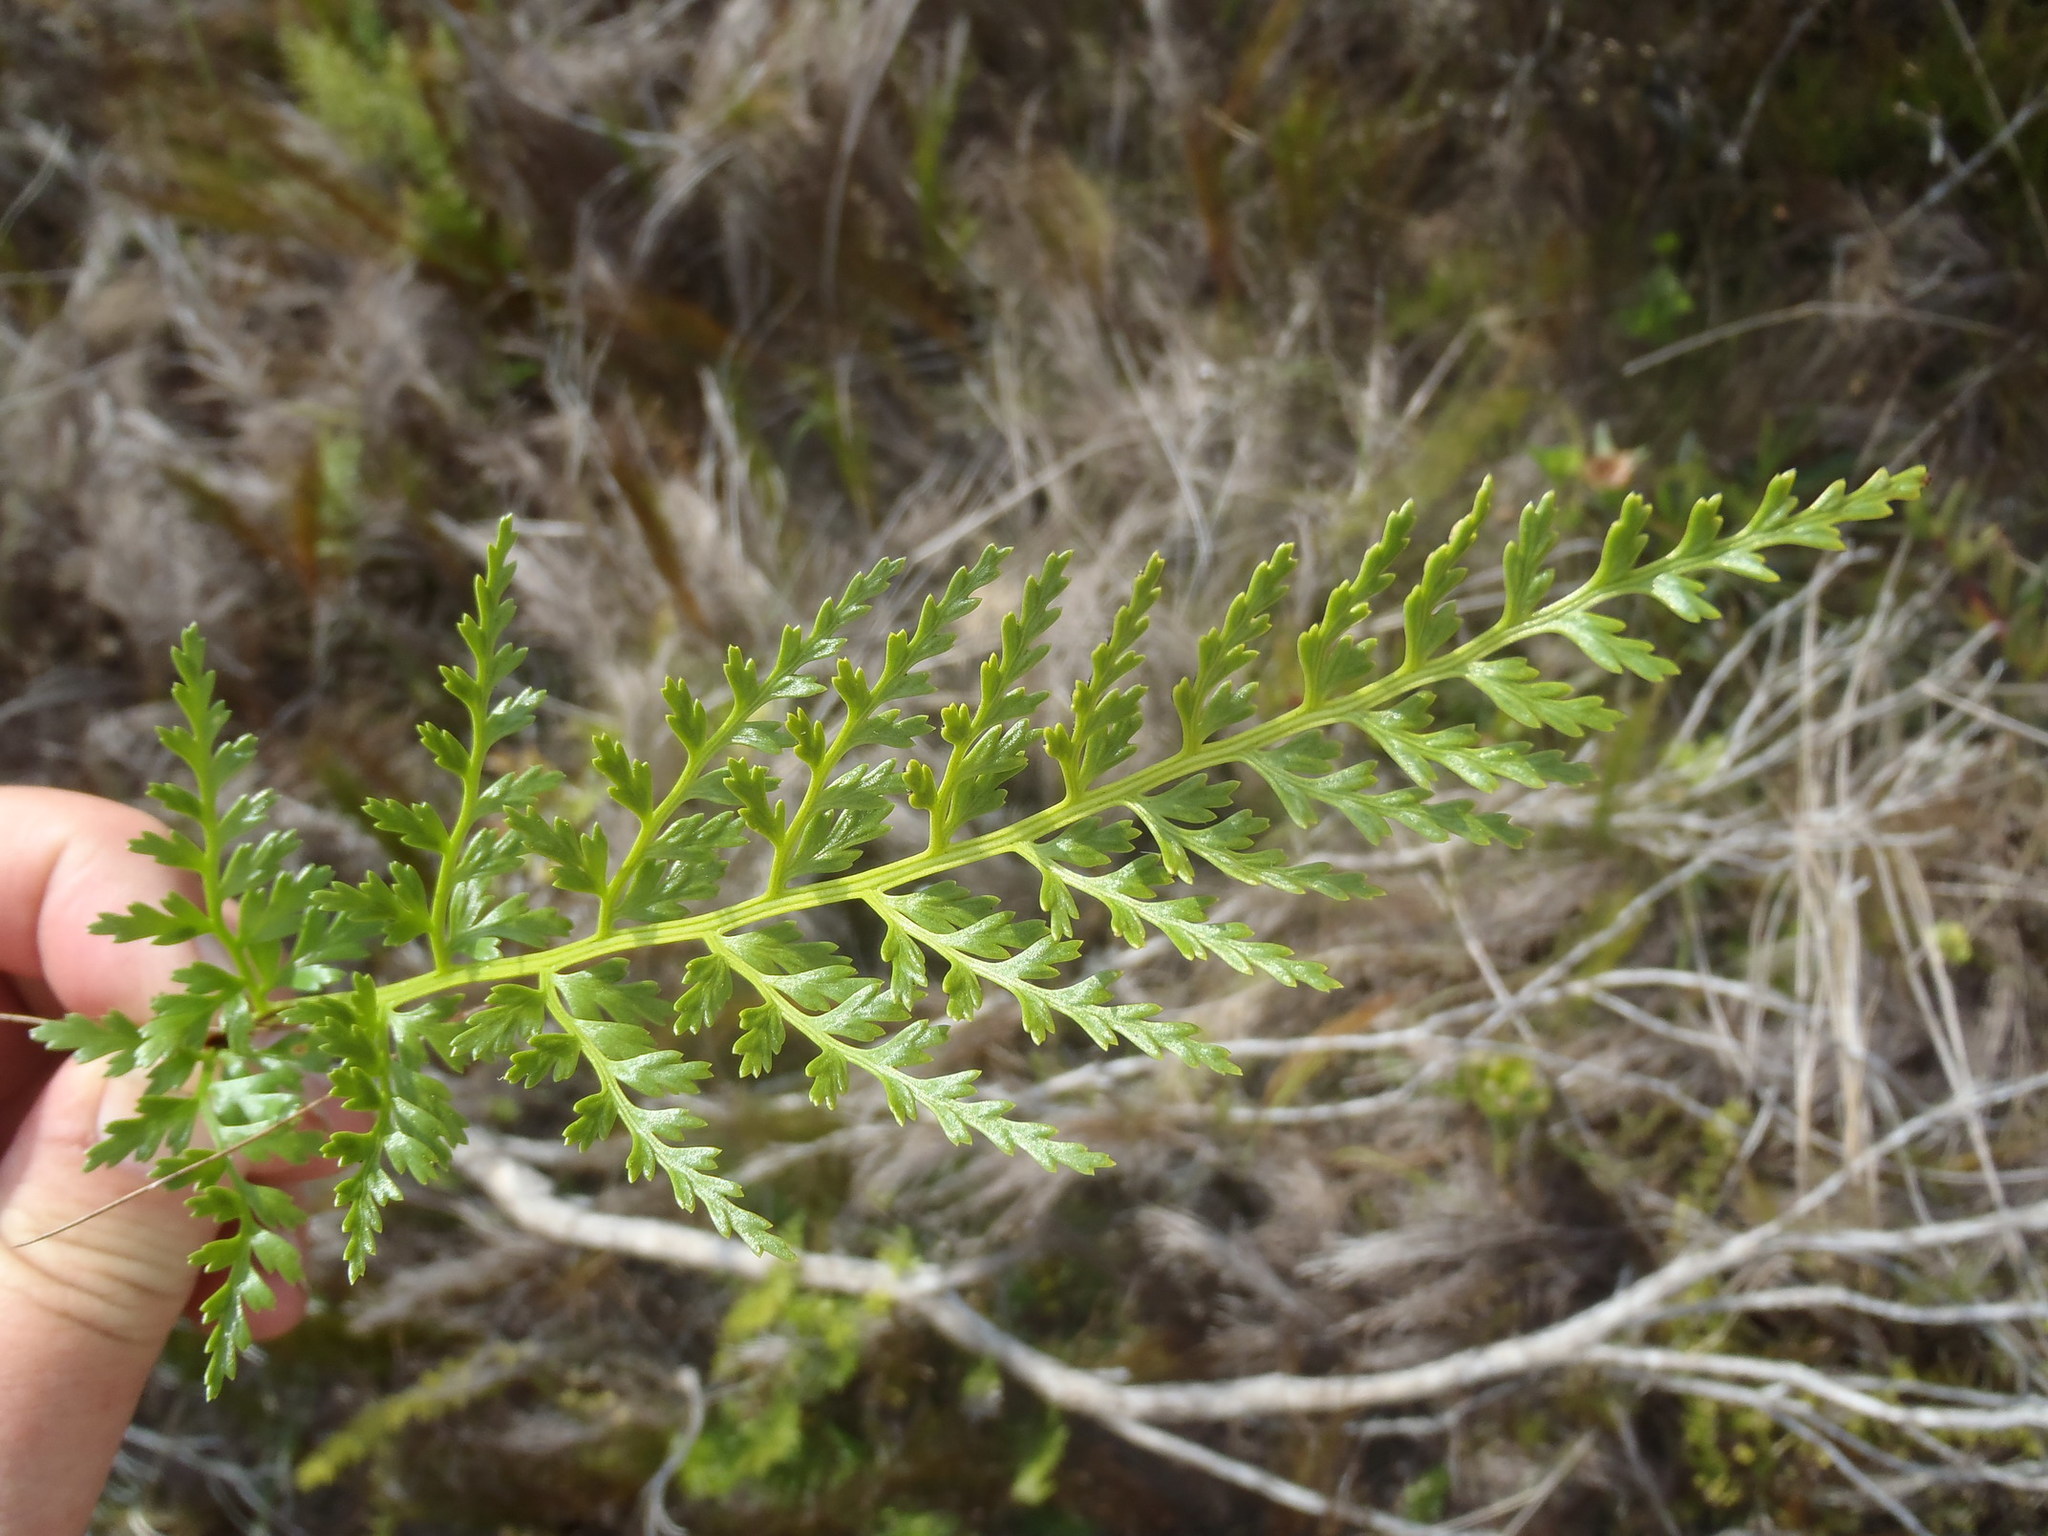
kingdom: Plantae
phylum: Tracheophyta
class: Polypodiopsida
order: Polypodiales
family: Aspleniaceae
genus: Asplenium
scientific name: Asplenium adiantum-nigrum
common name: Black spleenwort
